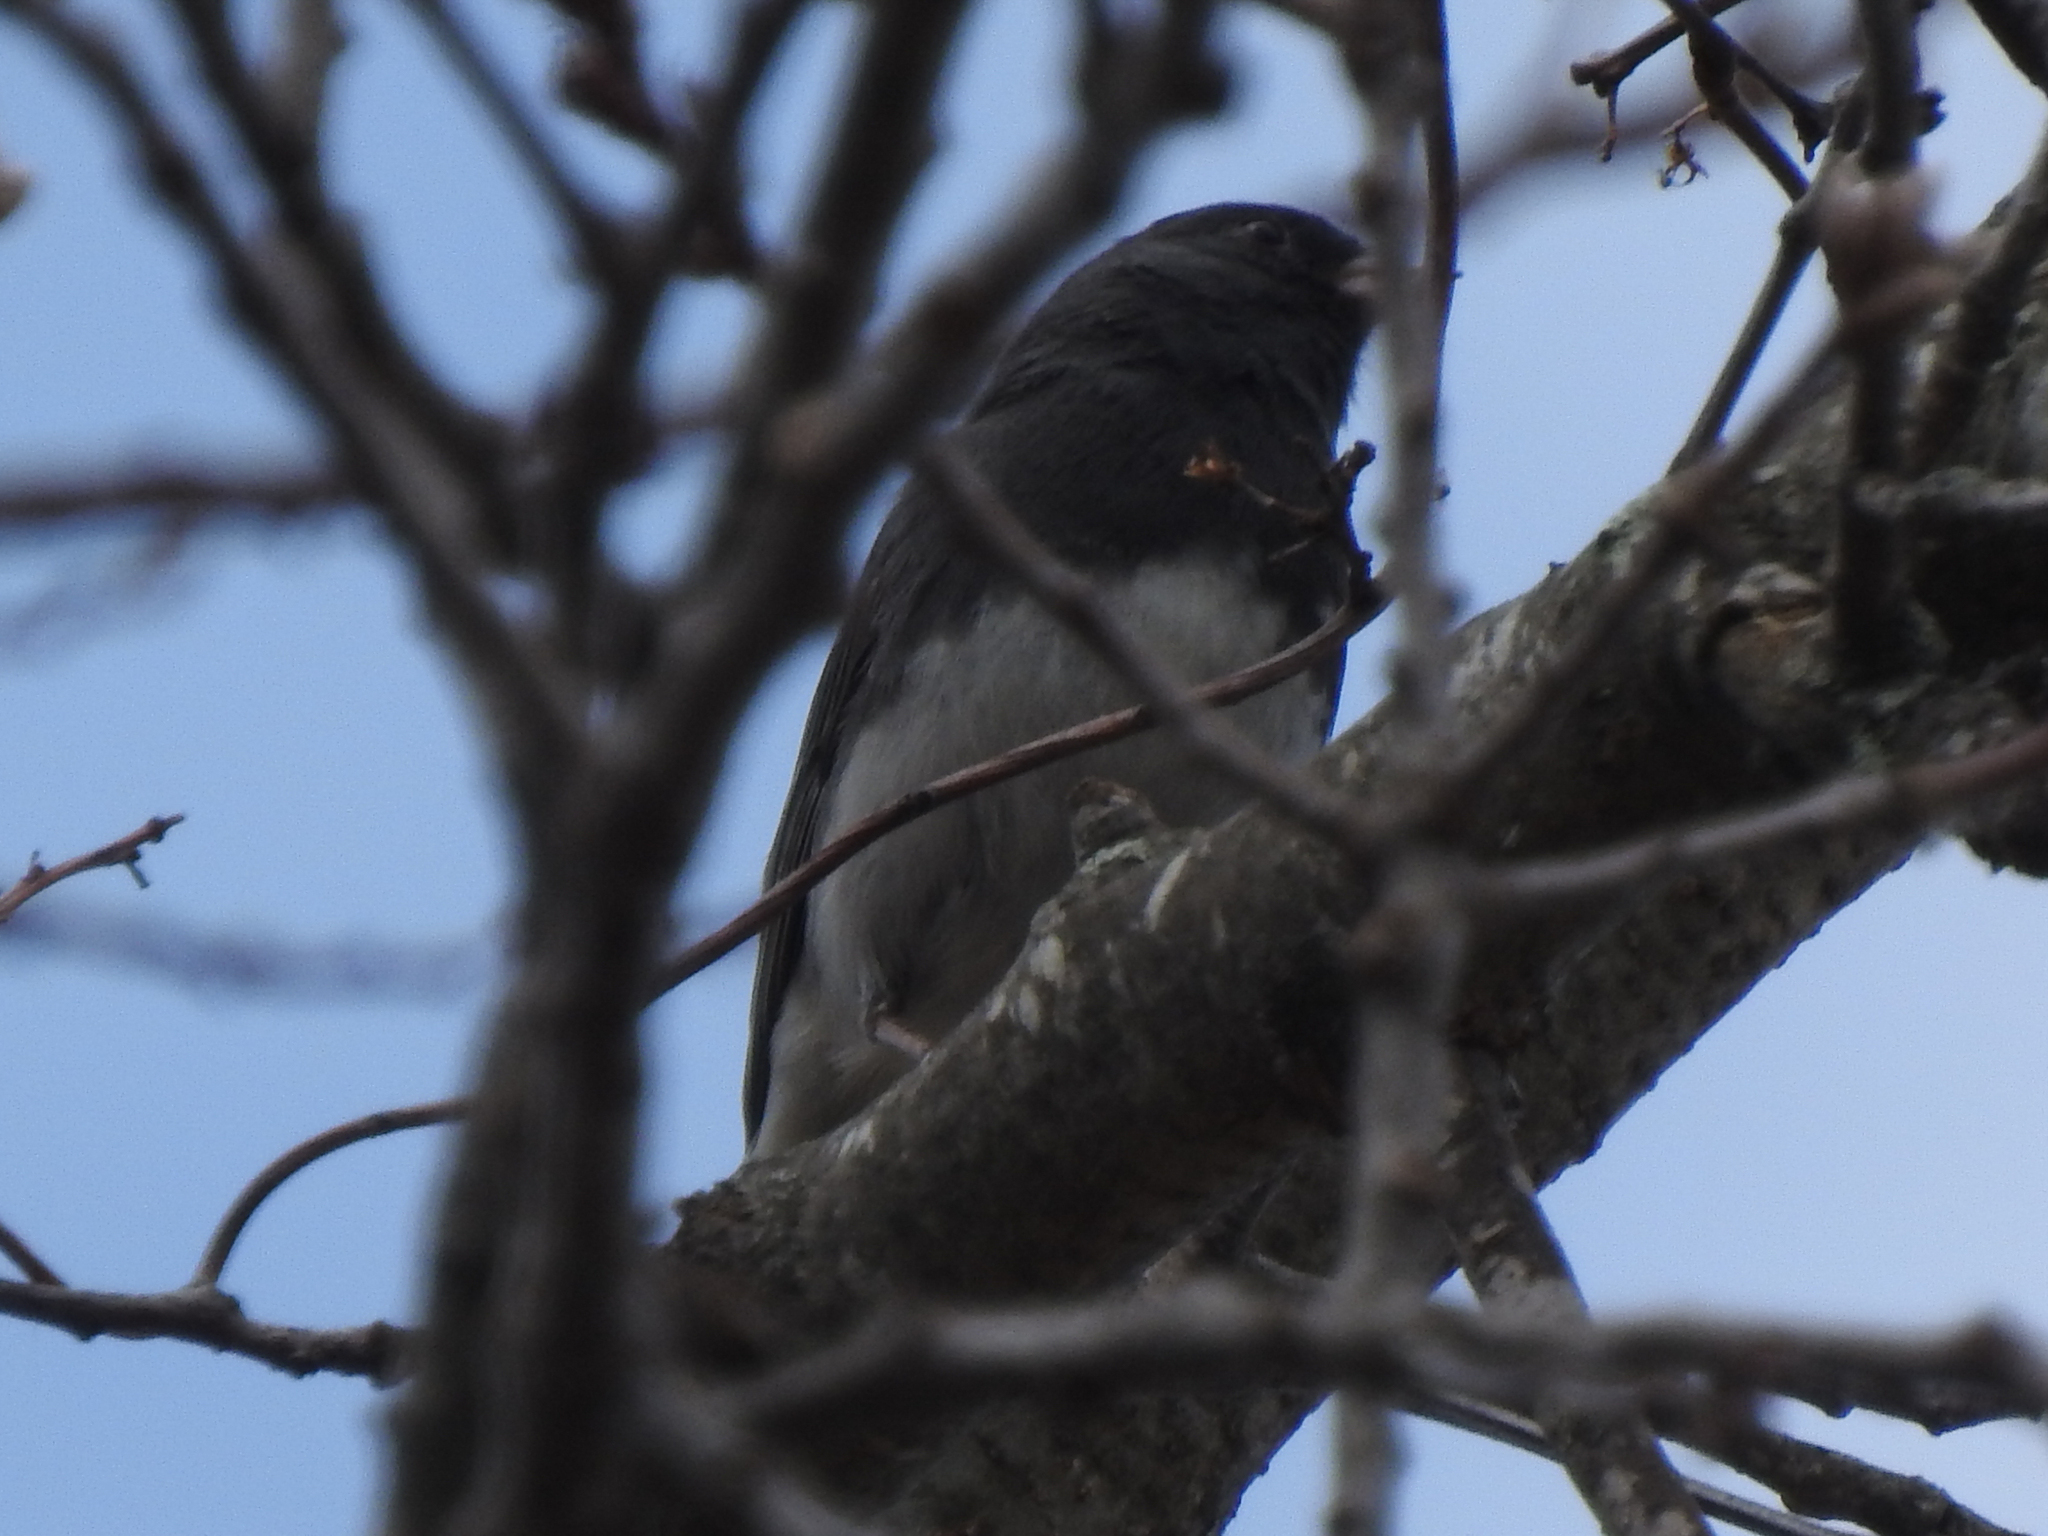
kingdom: Animalia
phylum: Chordata
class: Aves
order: Passeriformes
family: Passerellidae
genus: Junco
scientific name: Junco hyemalis
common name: Dark-eyed junco
